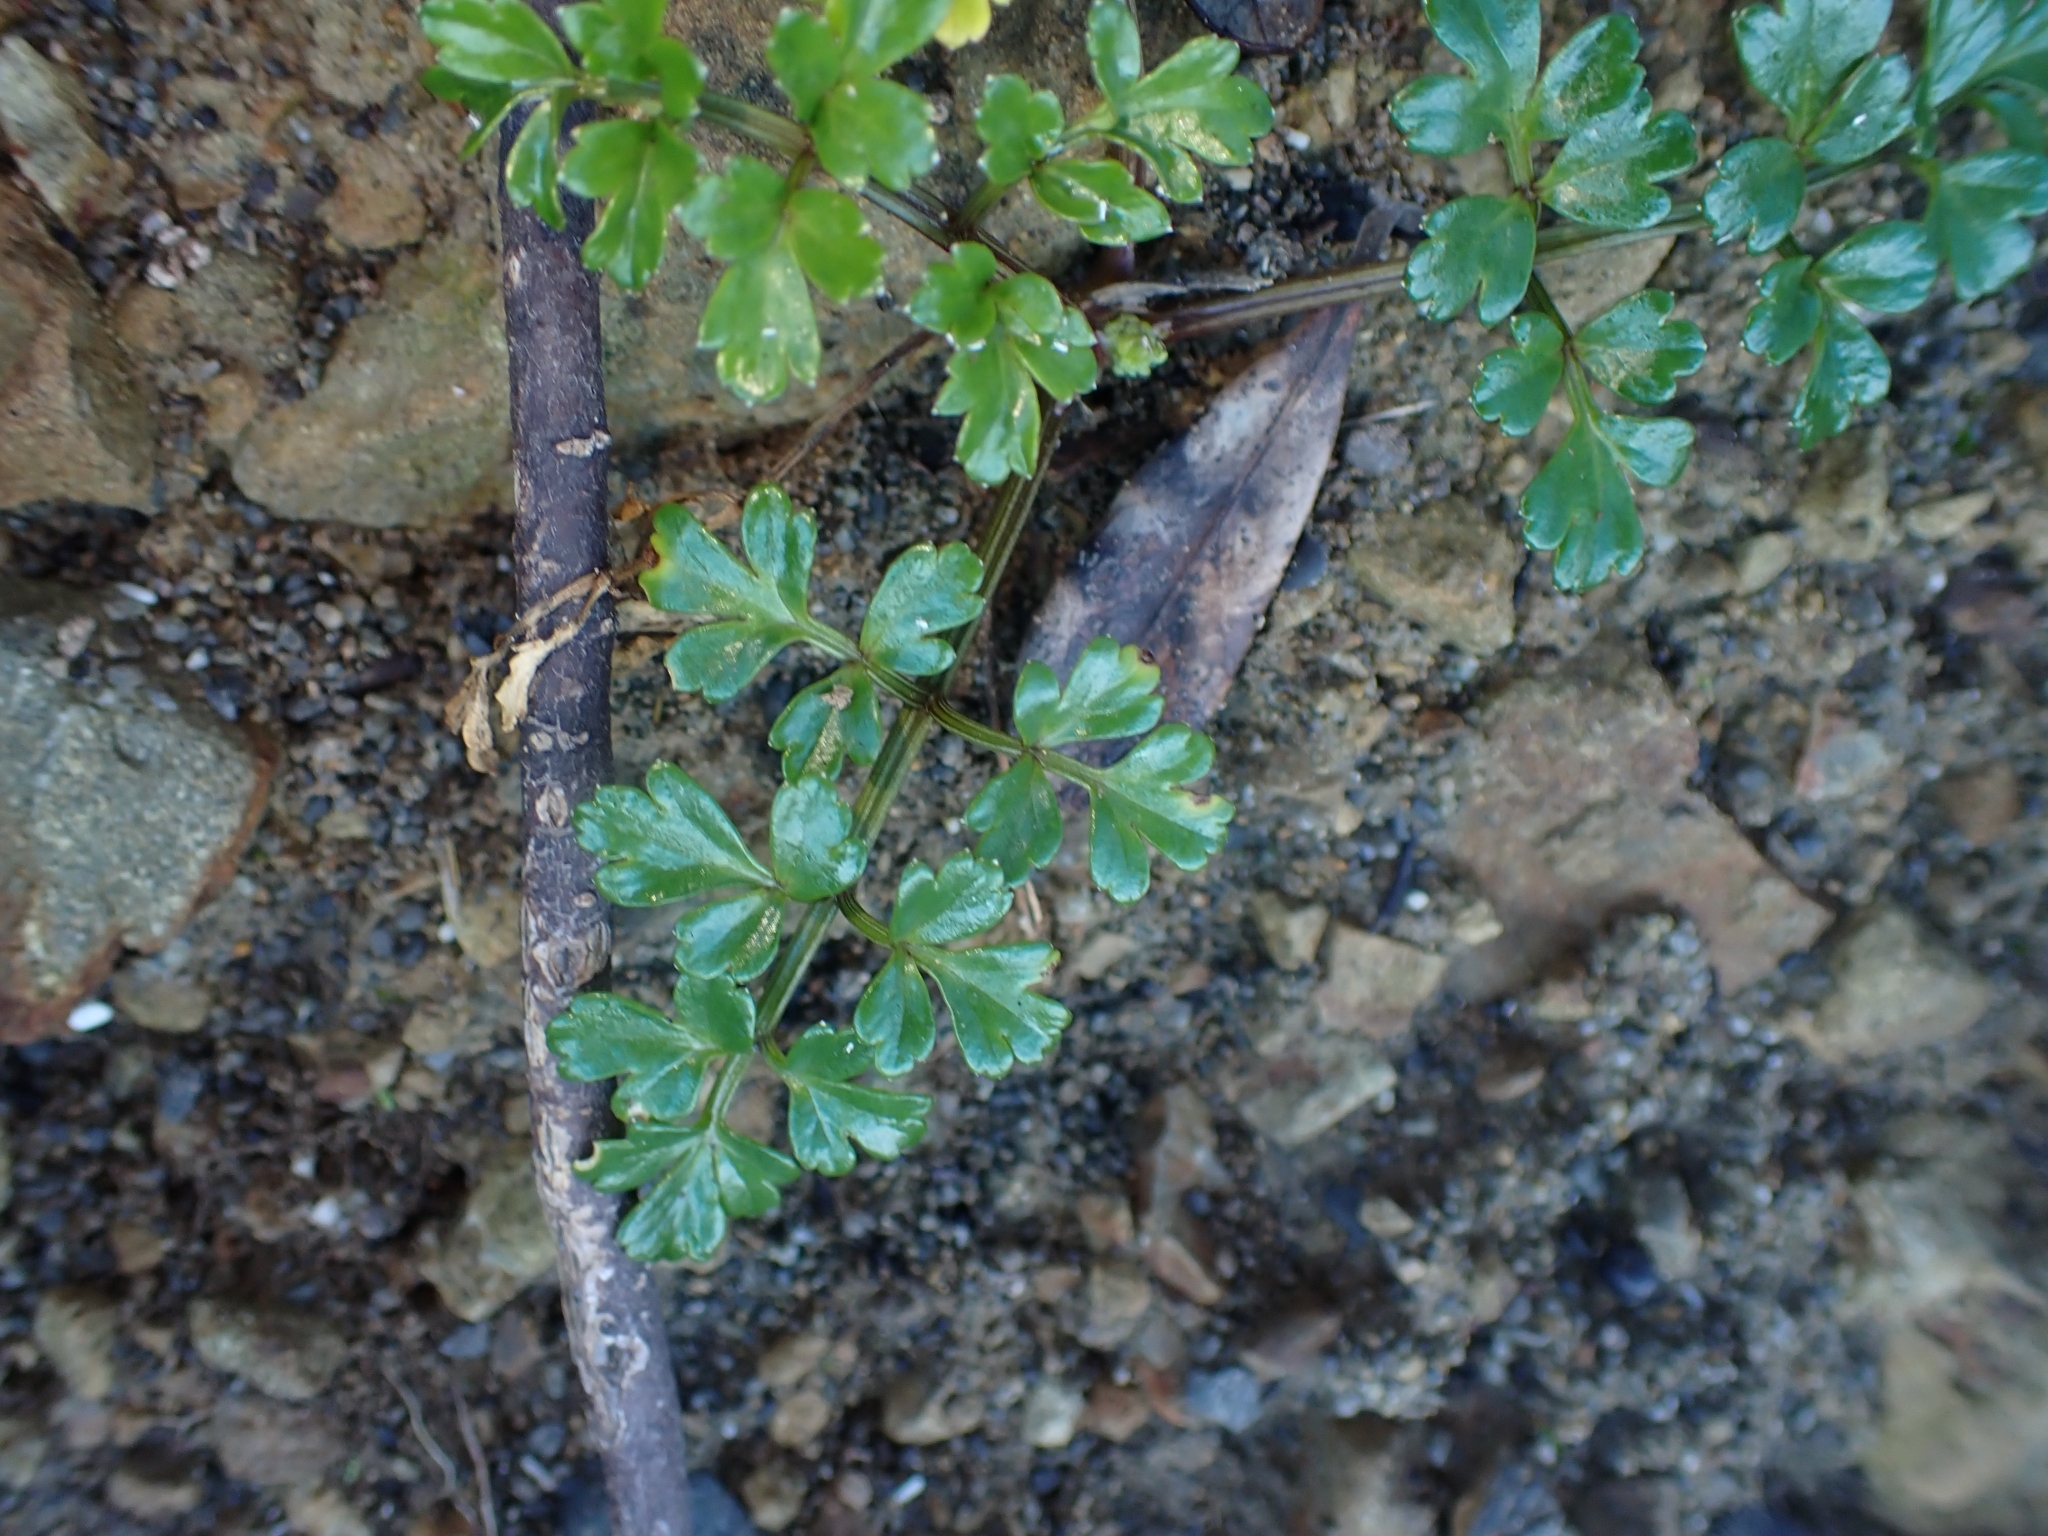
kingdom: Plantae
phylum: Tracheophyta
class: Magnoliopsida
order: Apiales
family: Apiaceae
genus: Apium
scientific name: Apium prostratum
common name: Prostrate marshwort
